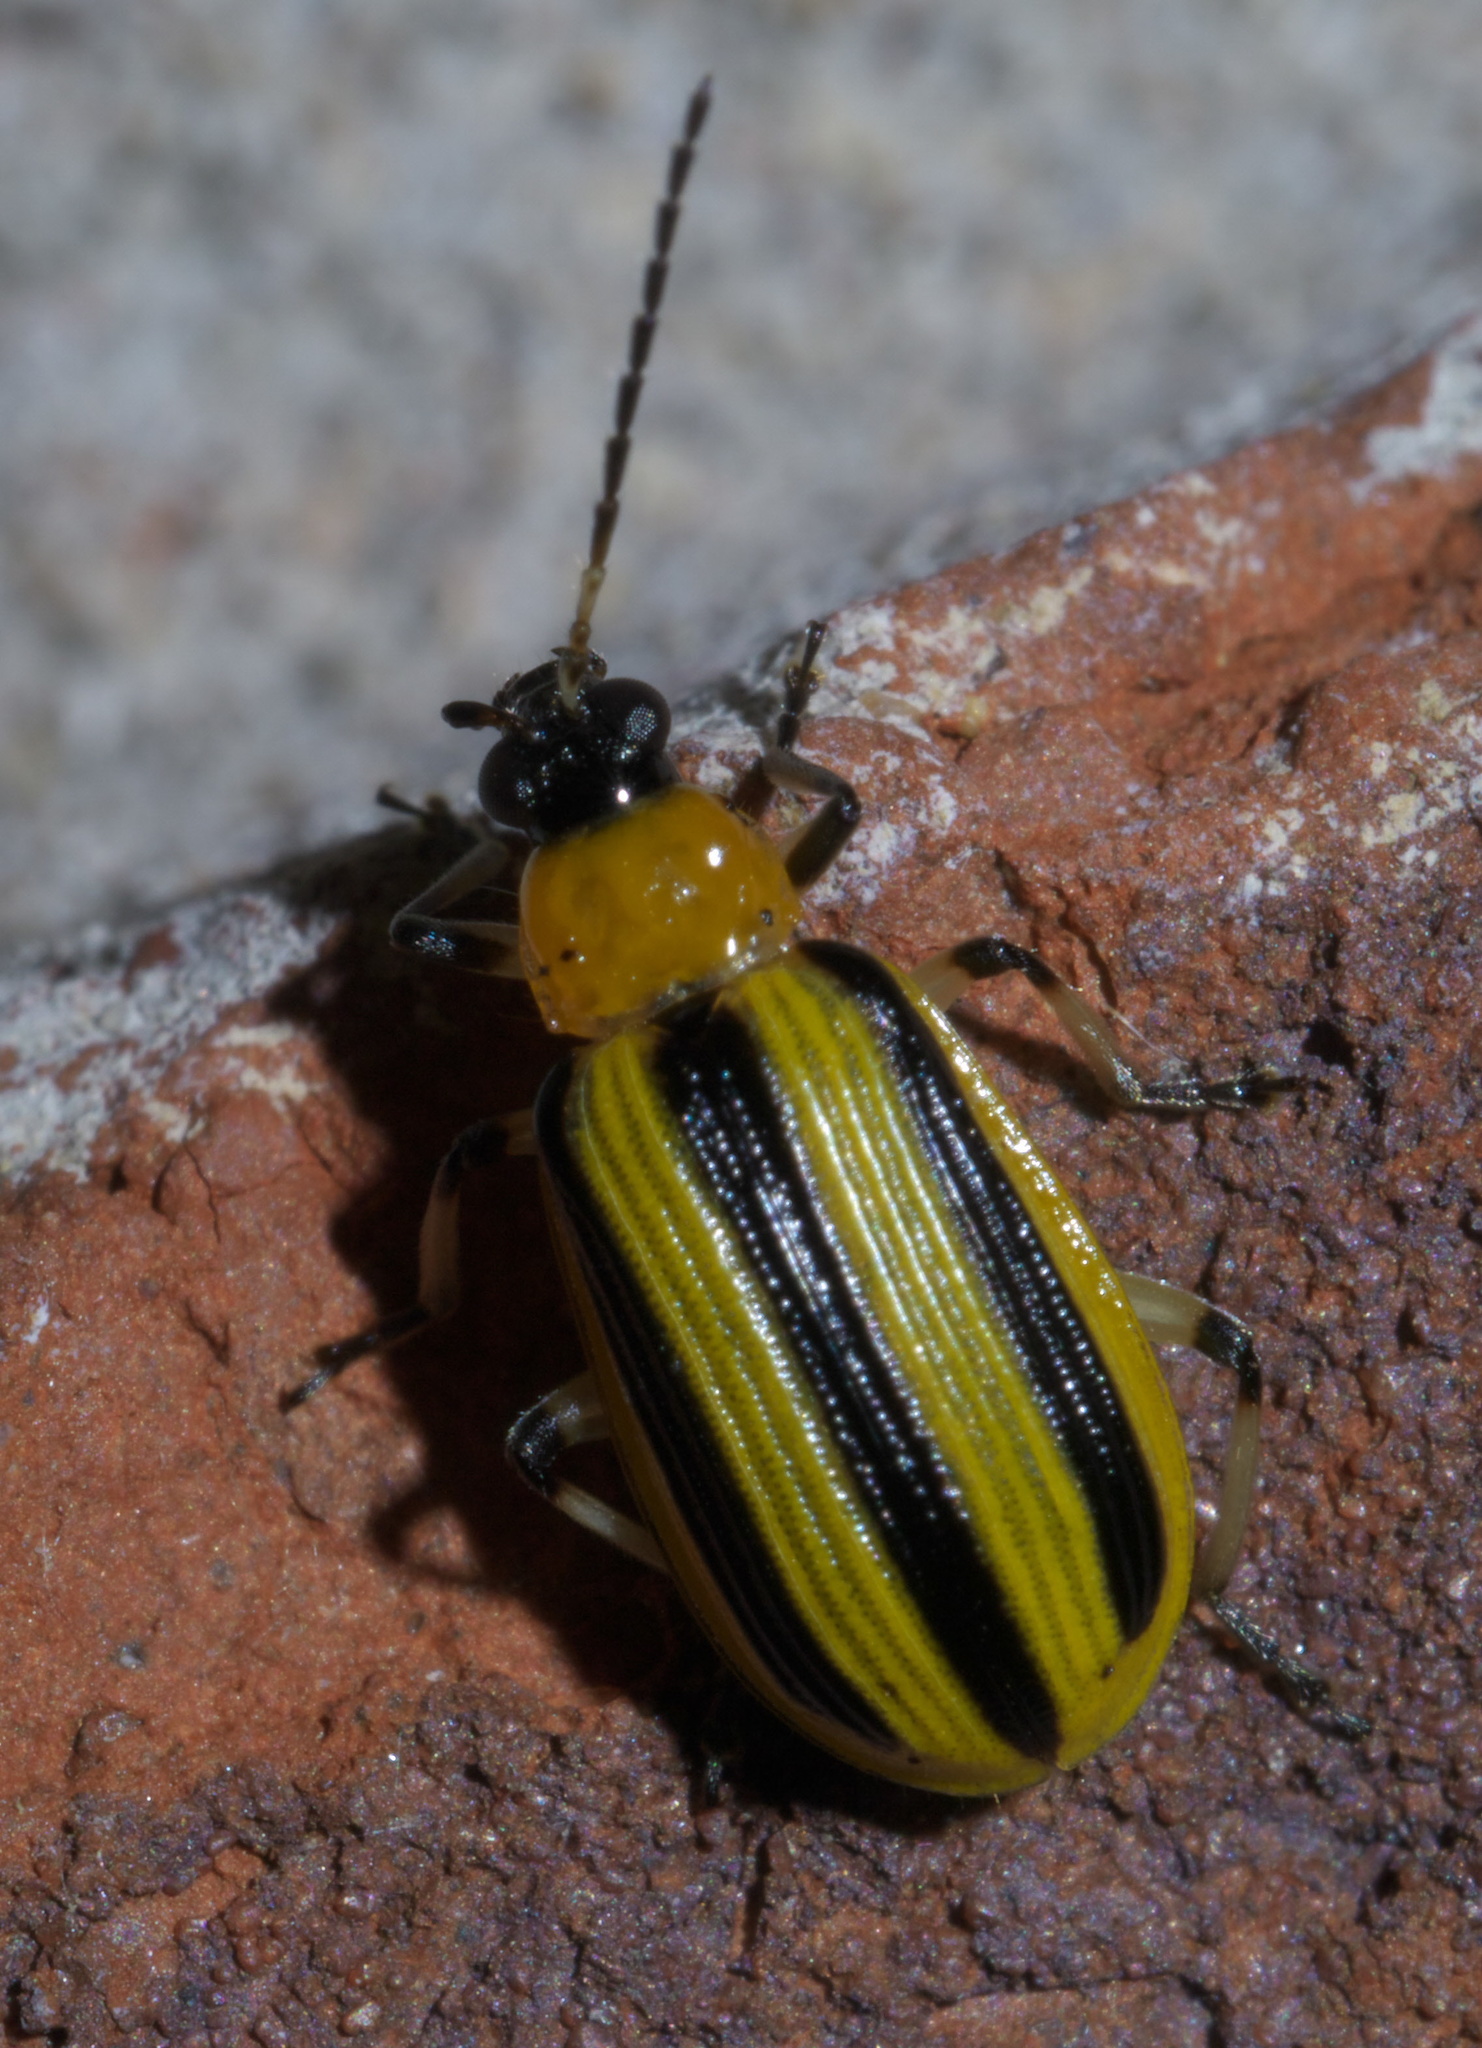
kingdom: Animalia
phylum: Arthropoda
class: Insecta
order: Coleoptera
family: Chrysomelidae
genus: Acalymma
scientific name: Acalymma vittatum
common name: Striped cucumber beetle
